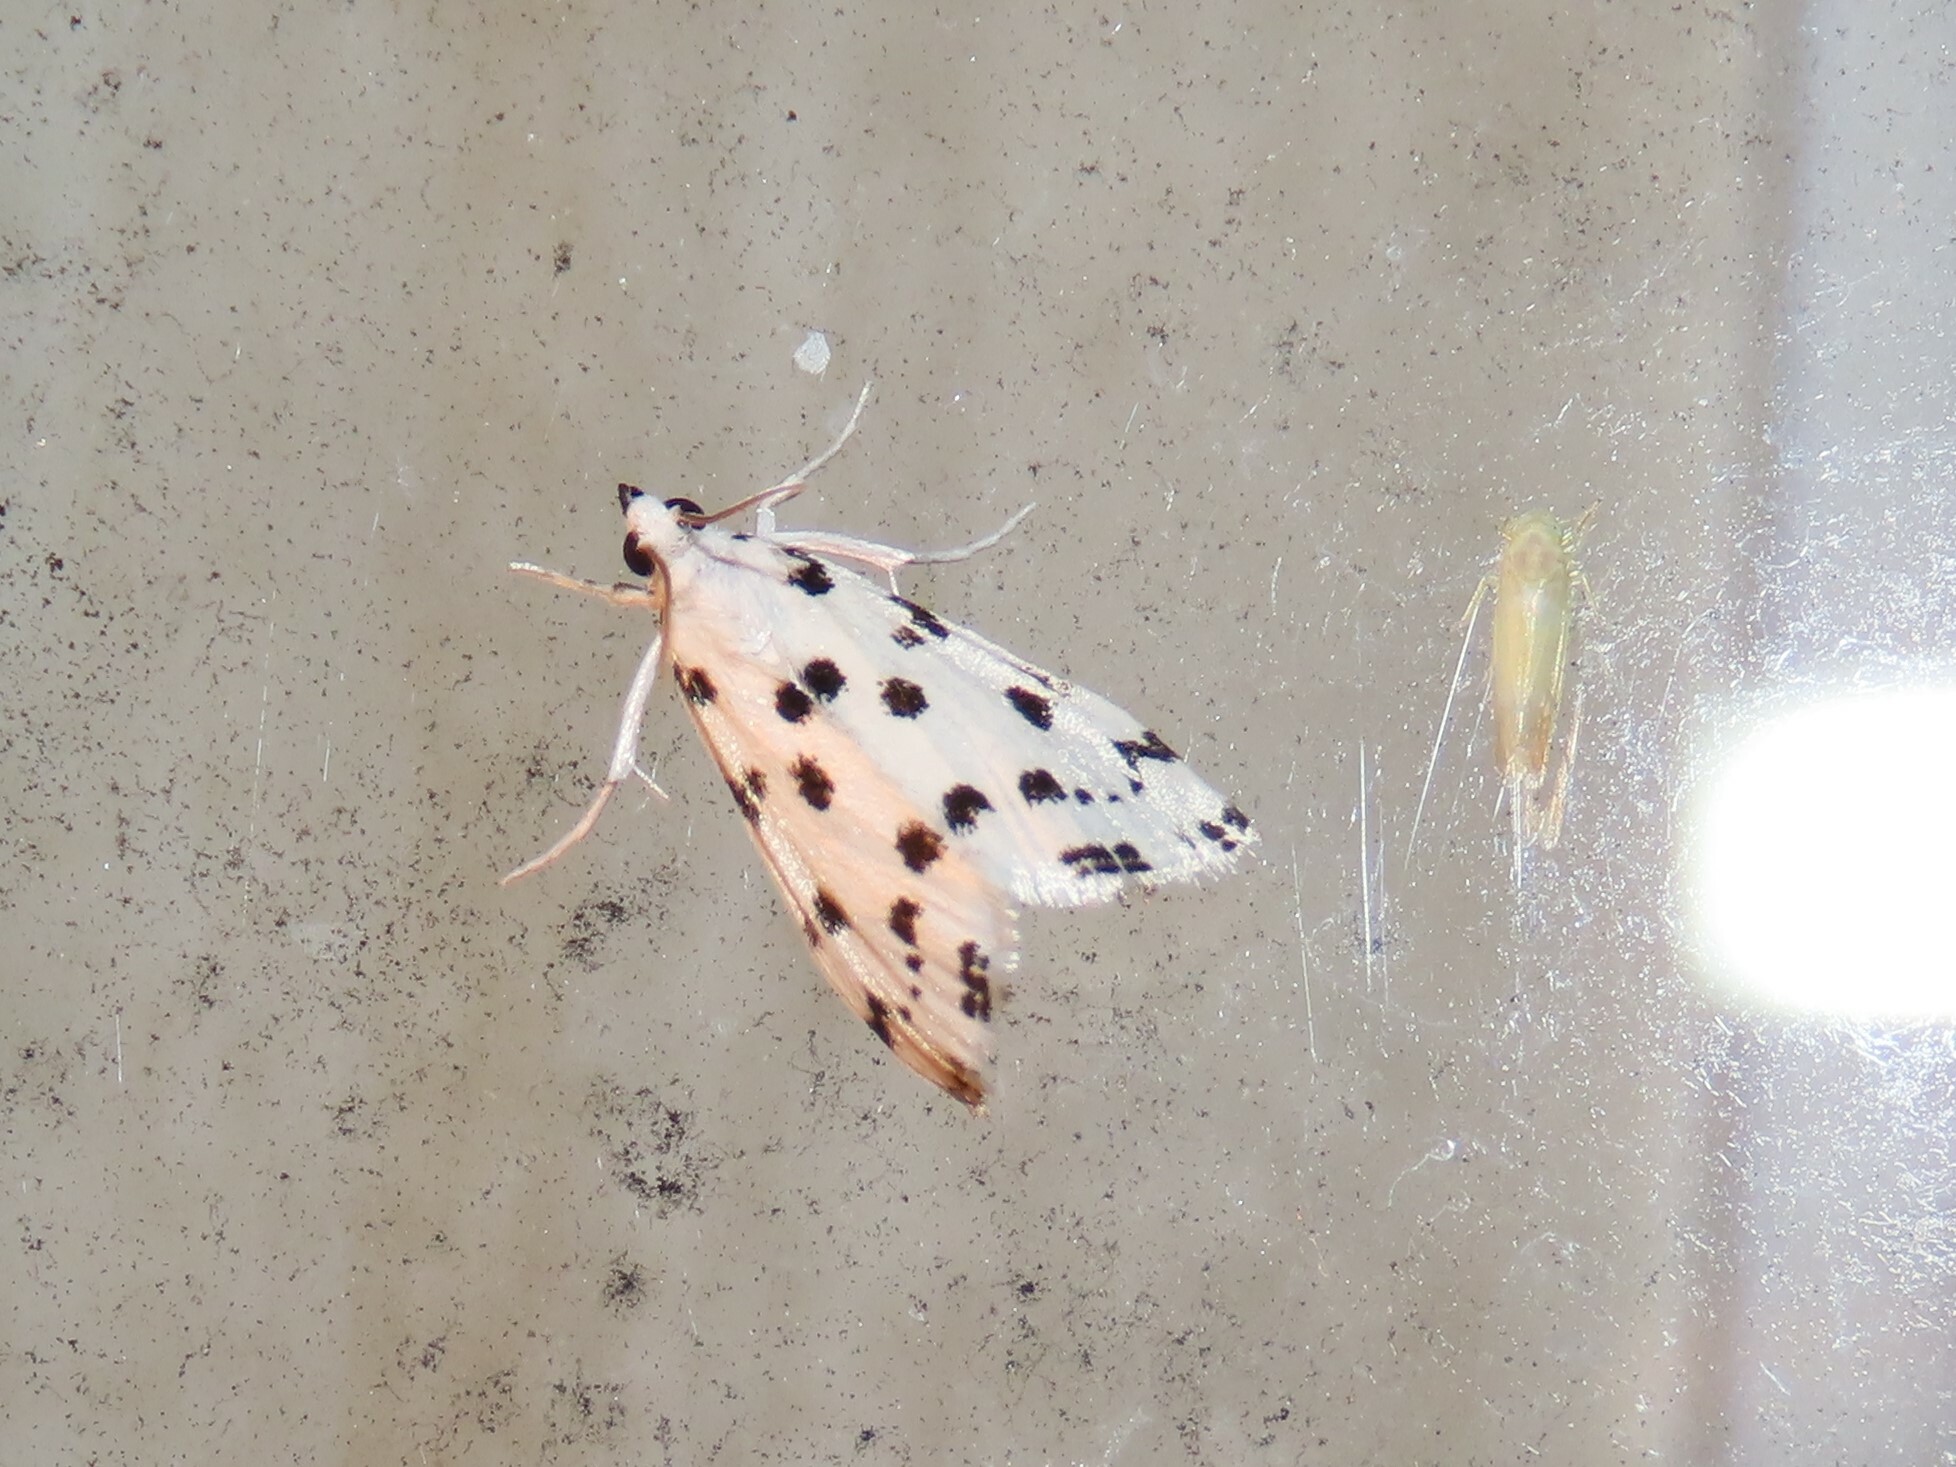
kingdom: Animalia
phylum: Arthropoda
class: Insecta
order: Lepidoptera
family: Crambidae
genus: Eustixia
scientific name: Eustixia pupula
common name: American cabbage pearl
